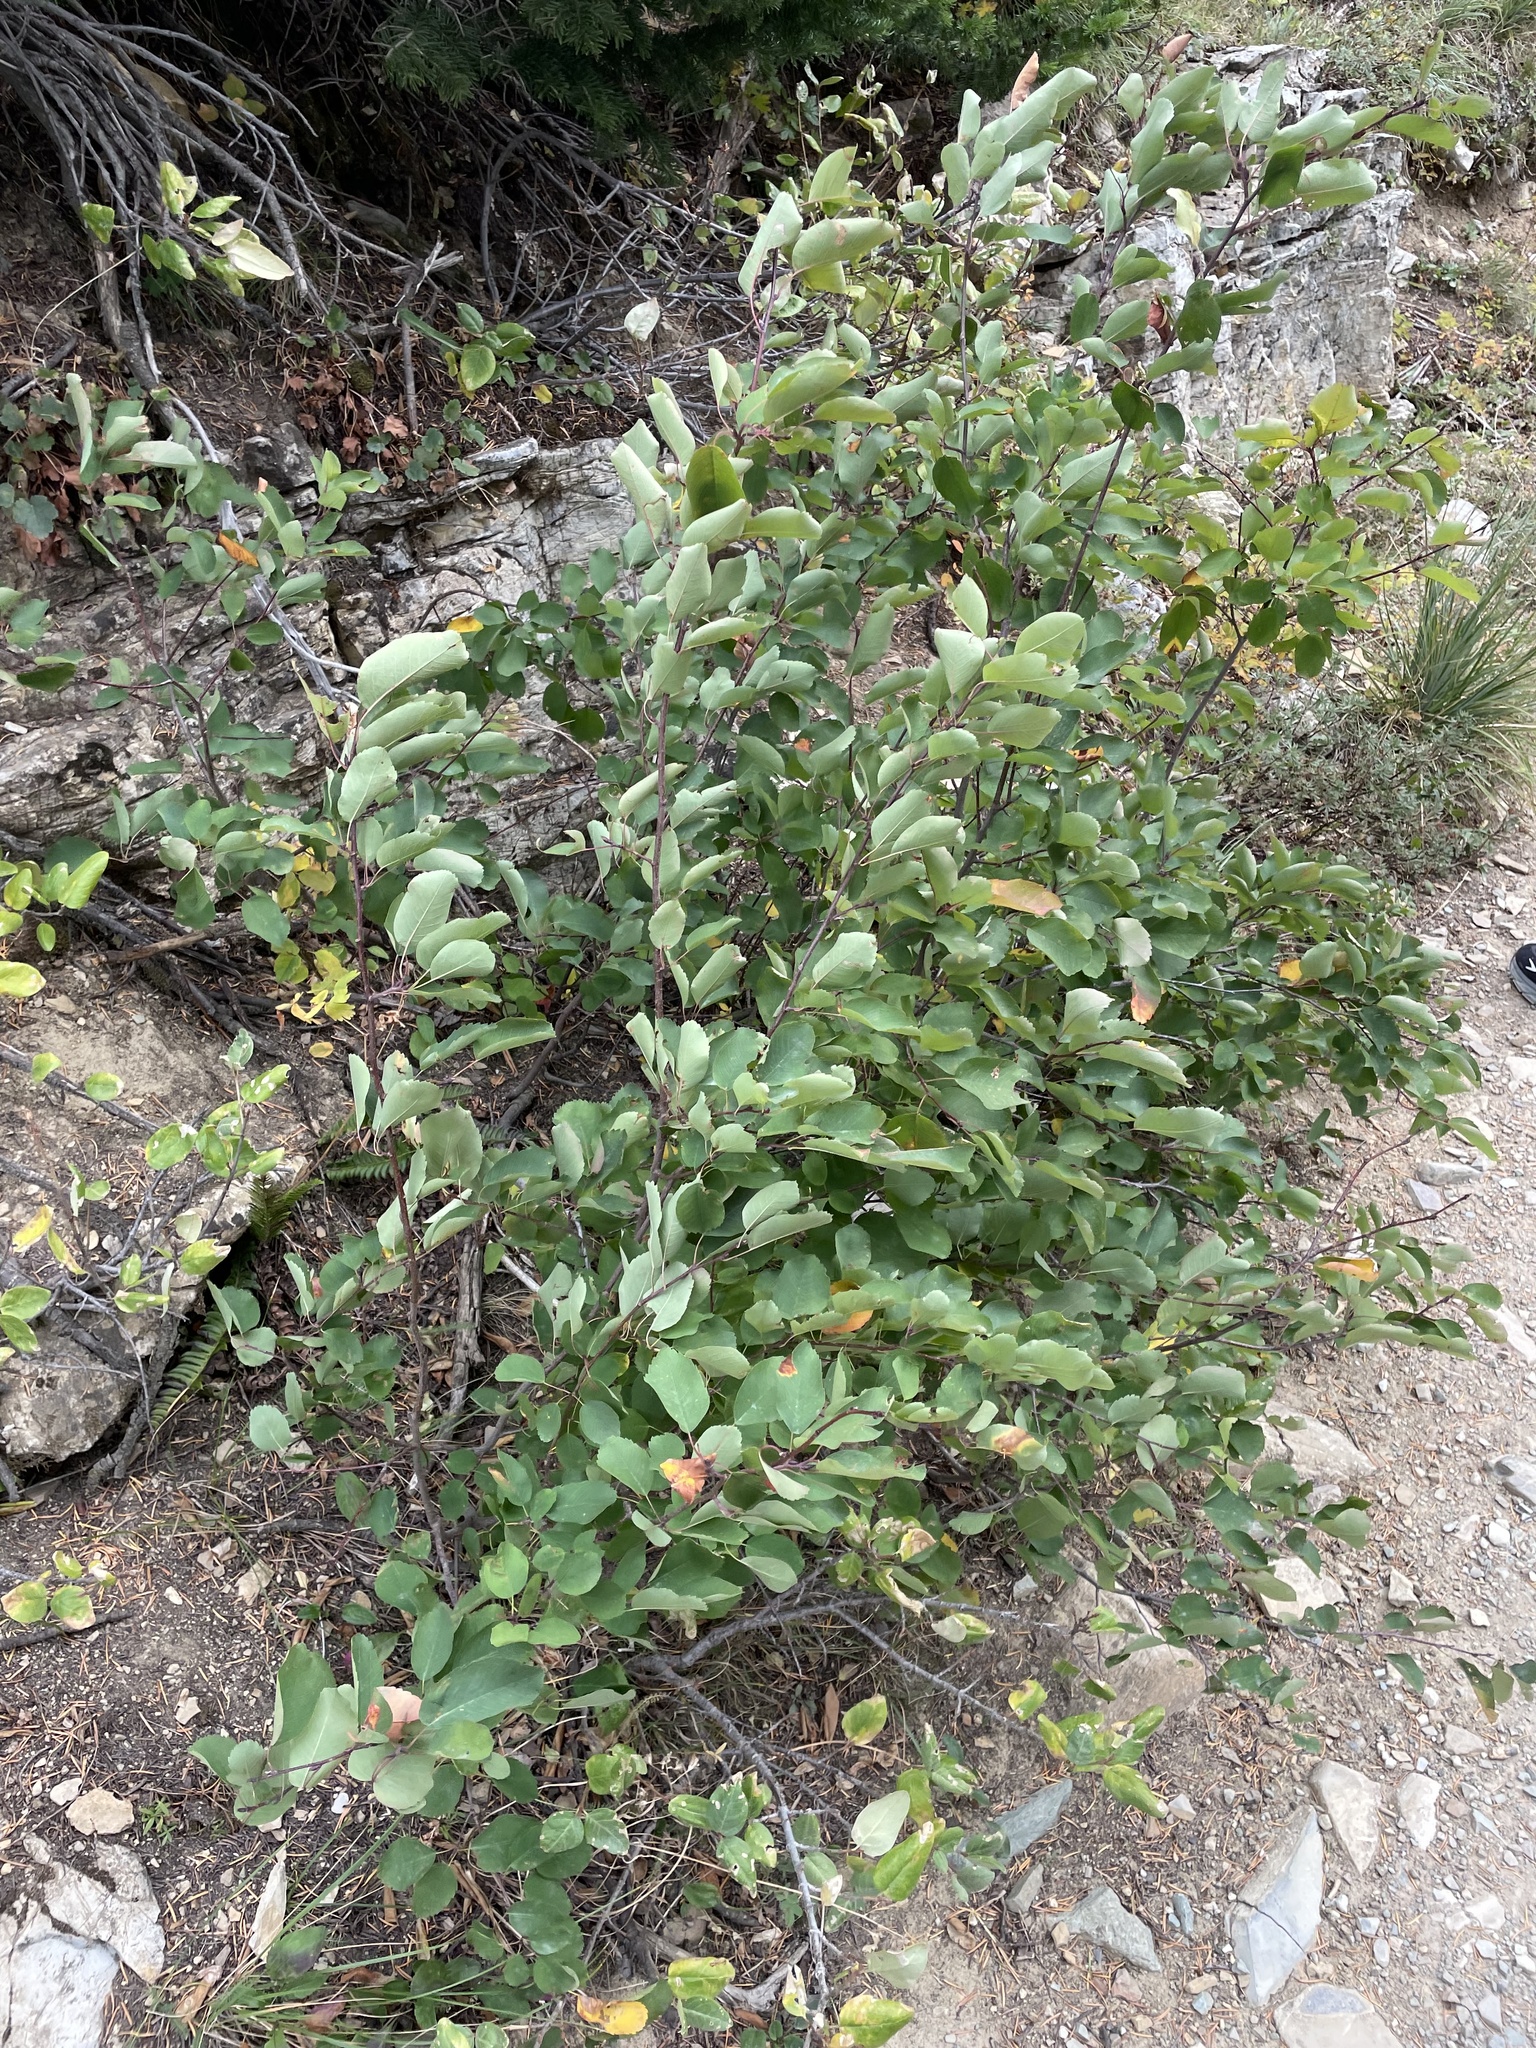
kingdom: Plantae
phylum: Tracheophyta
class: Magnoliopsida
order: Rosales
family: Rosaceae
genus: Amelanchier
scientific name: Amelanchier alnifolia
